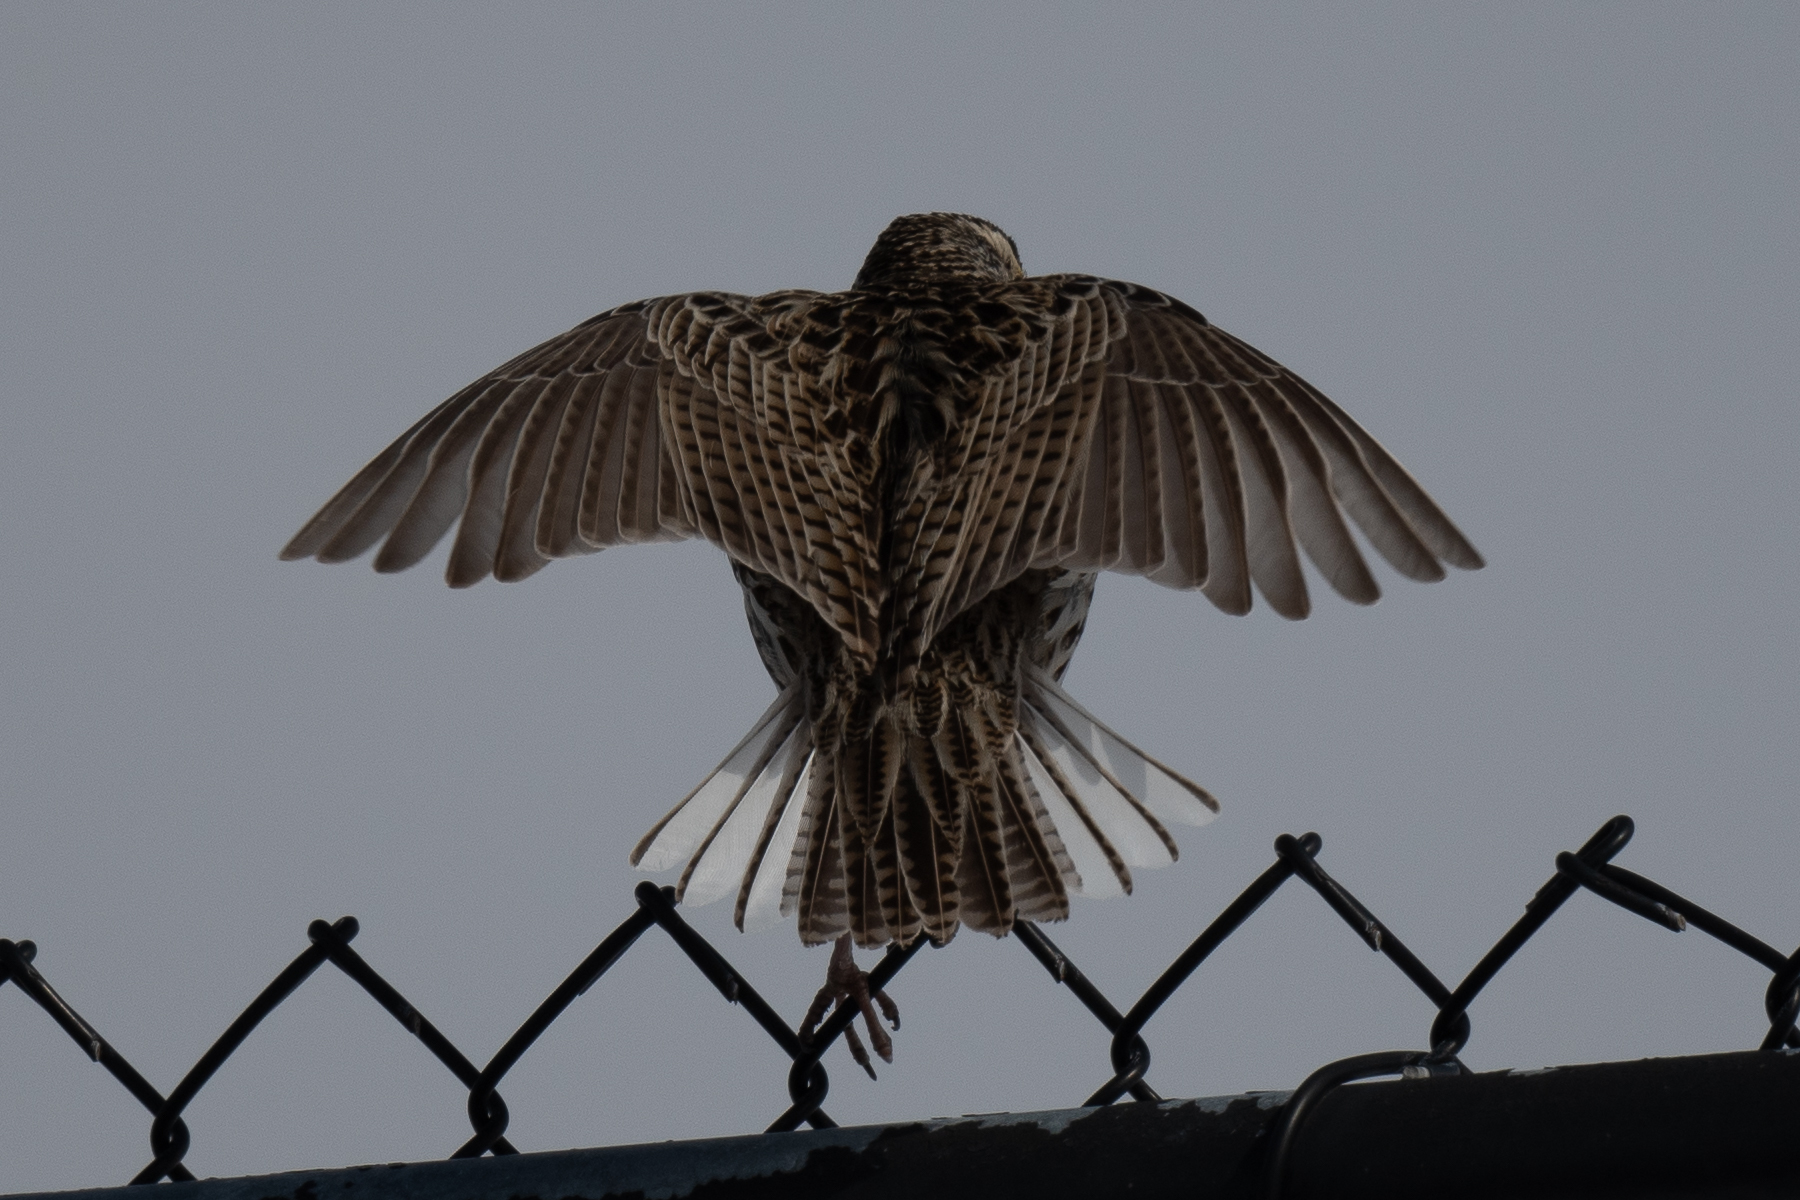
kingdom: Animalia
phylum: Chordata
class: Aves
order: Passeriformes
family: Icteridae
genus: Sturnella
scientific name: Sturnella neglecta
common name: Western meadowlark
